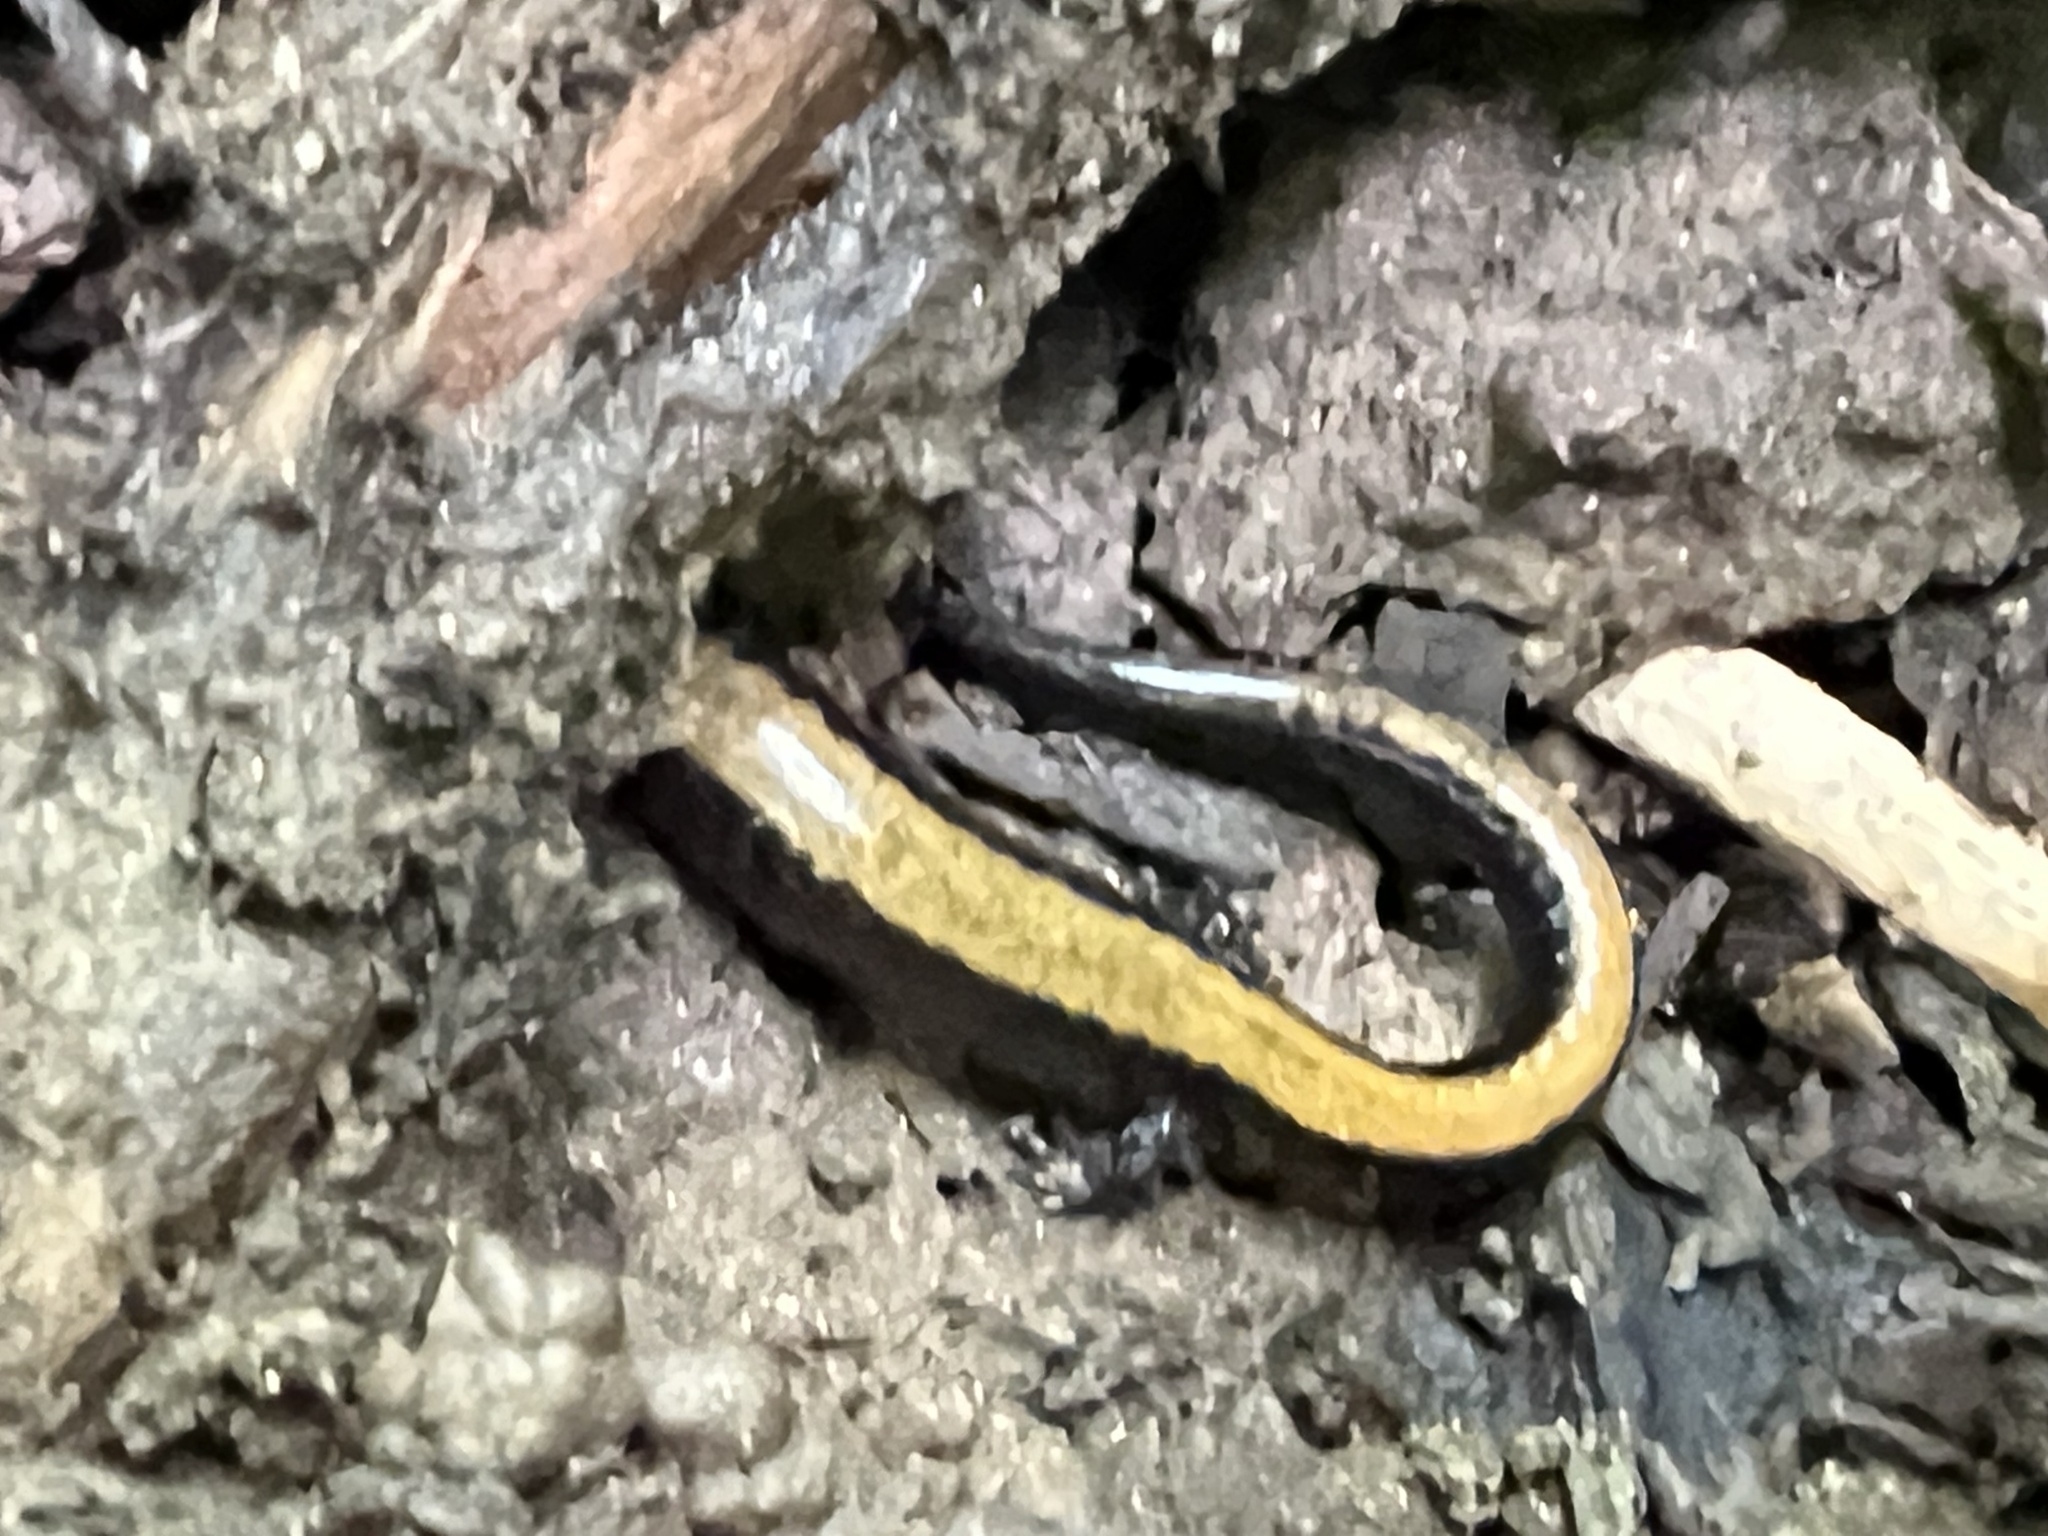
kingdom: Animalia
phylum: Chordata
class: Amphibia
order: Caudata
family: Plethodontidae
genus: Plethodon
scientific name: Plethodon cinereus
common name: Redback salamander
